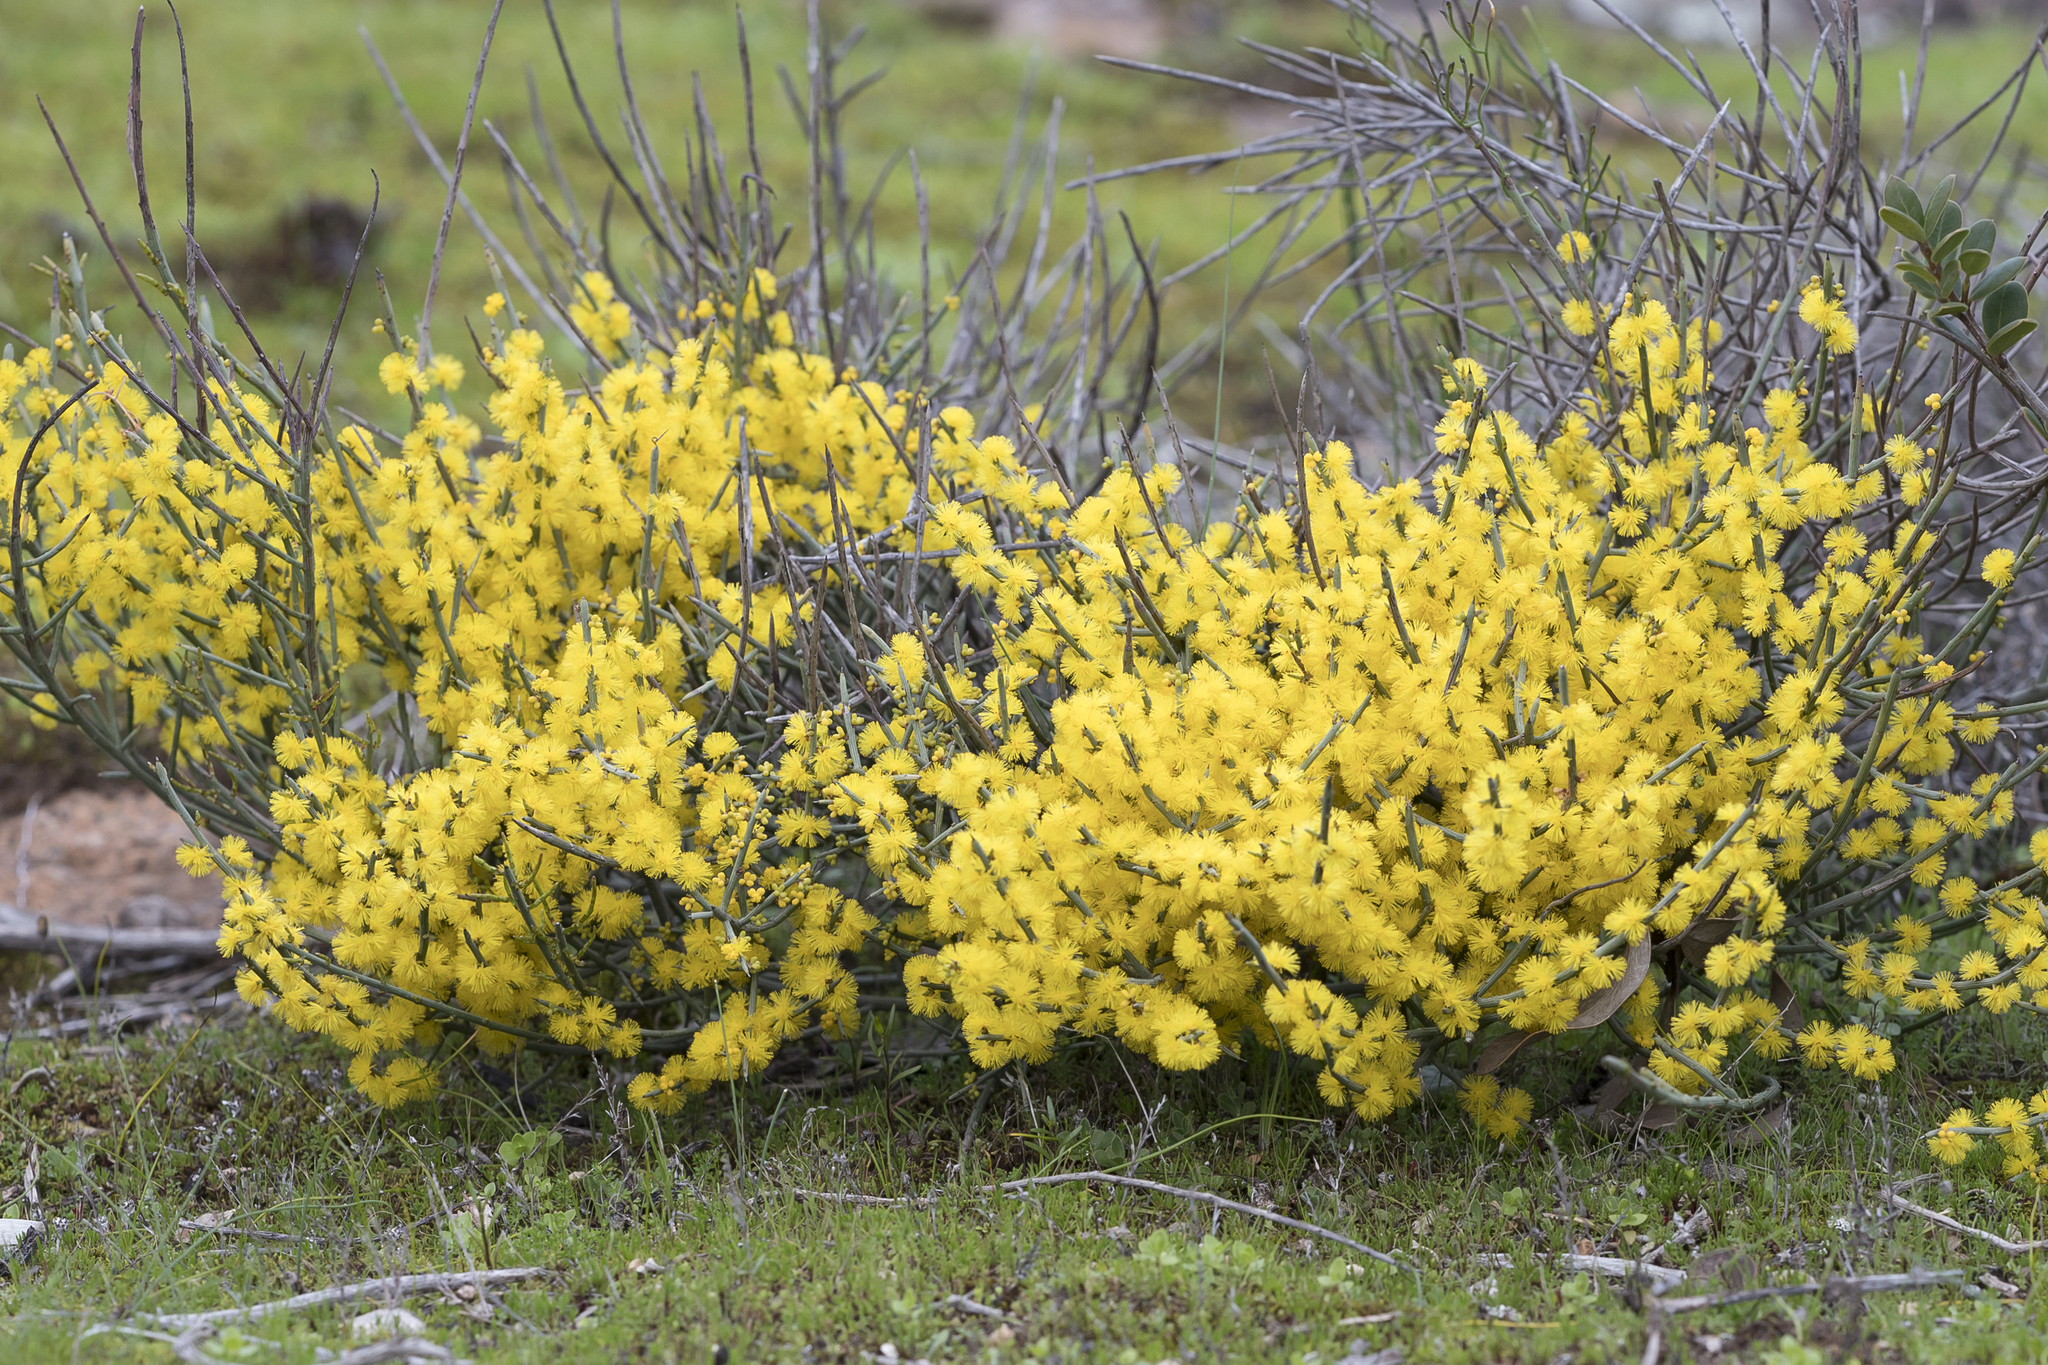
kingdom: Plantae
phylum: Tracheophyta
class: Magnoliopsida
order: Fabales
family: Fabaceae
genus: Acacia
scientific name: Acacia spinescens
